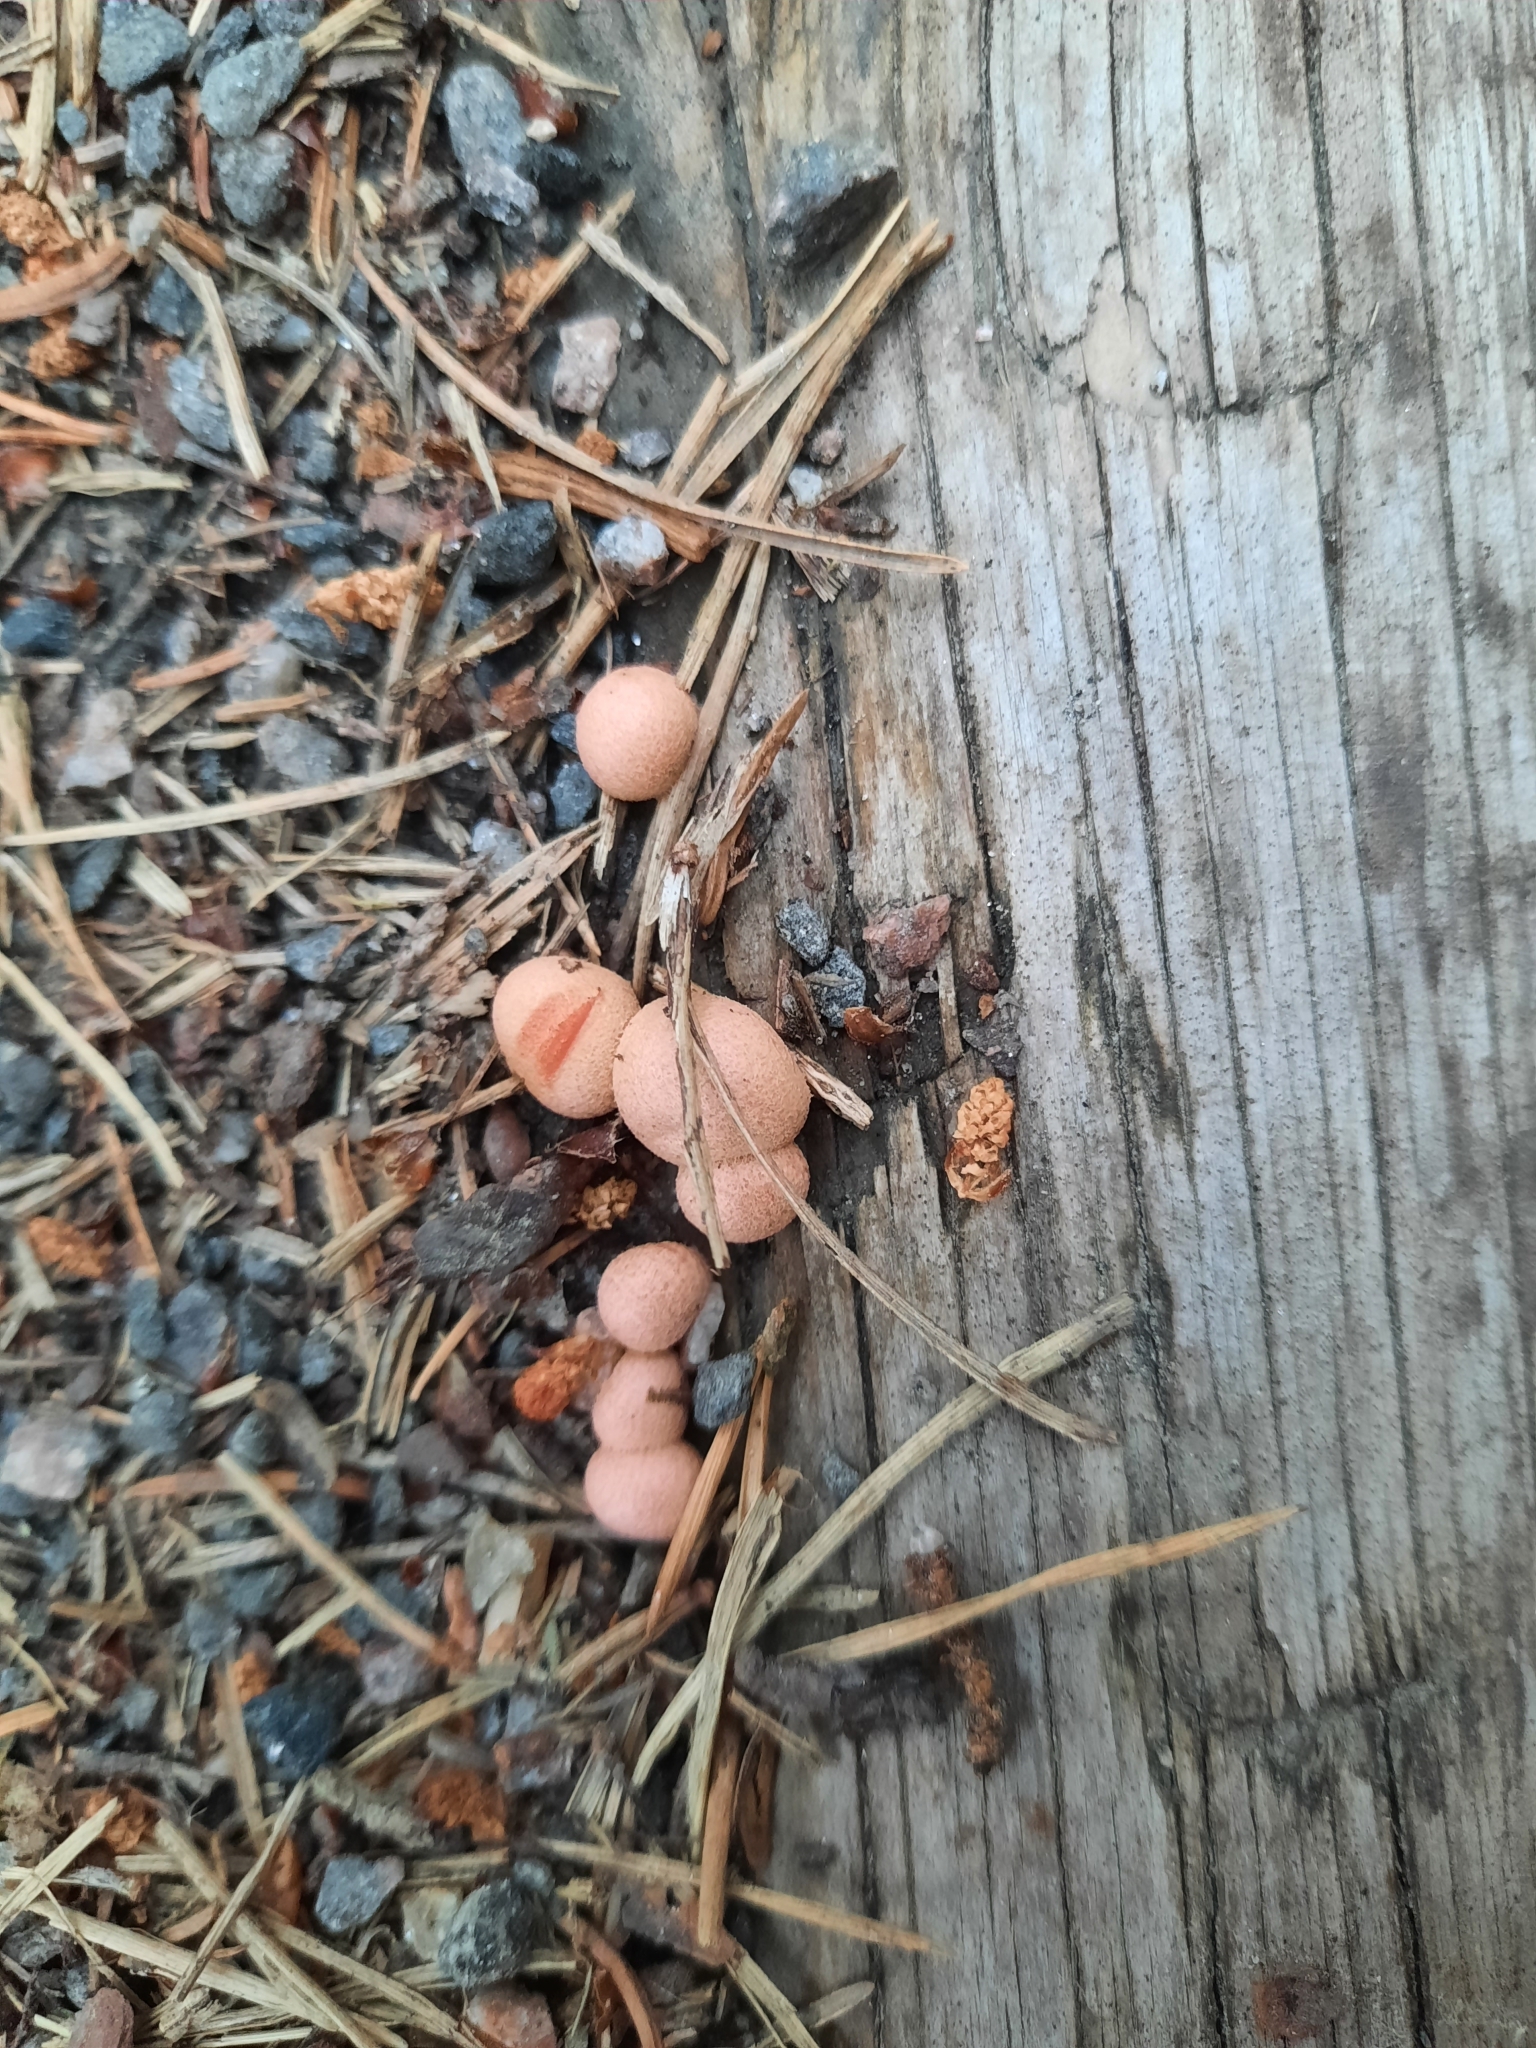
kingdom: Protozoa
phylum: Mycetozoa
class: Myxomycetes
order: Cribrariales
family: Tubiferaceae
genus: Lycogala
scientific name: Lycogala epidendrum
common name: Wolf's milk
